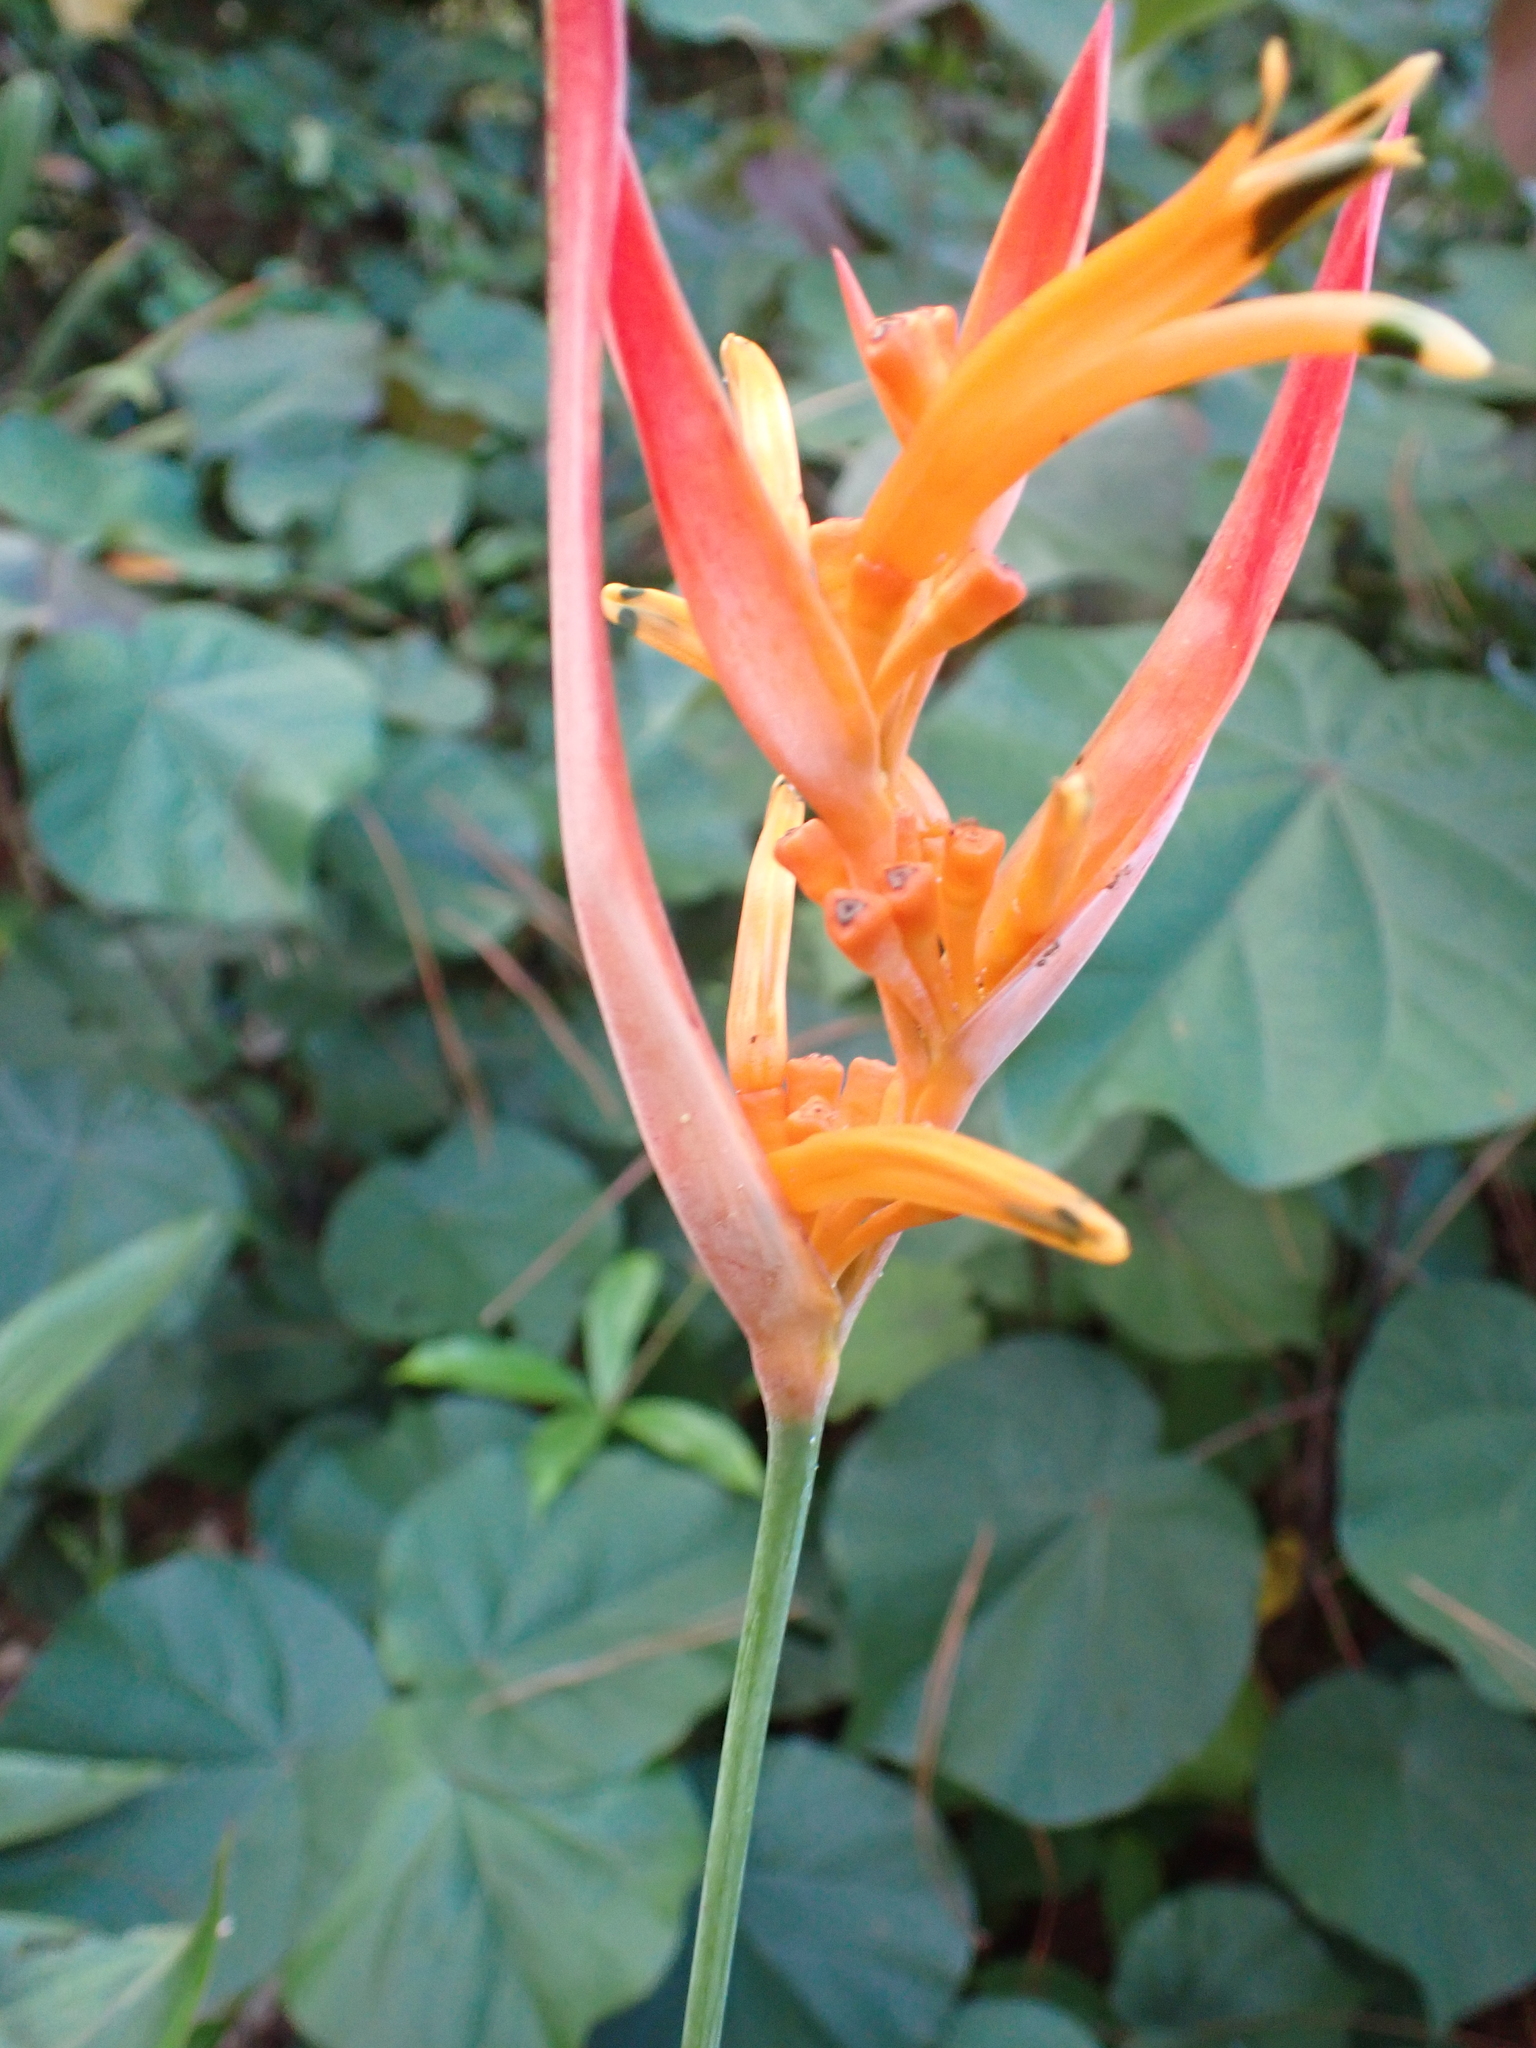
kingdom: Plantae
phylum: Tracheophyta
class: Liliopsida
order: Zingiberales
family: Heliconiaceae
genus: Heliconia
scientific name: Heliconia psittacorum
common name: Parrot's-flower
